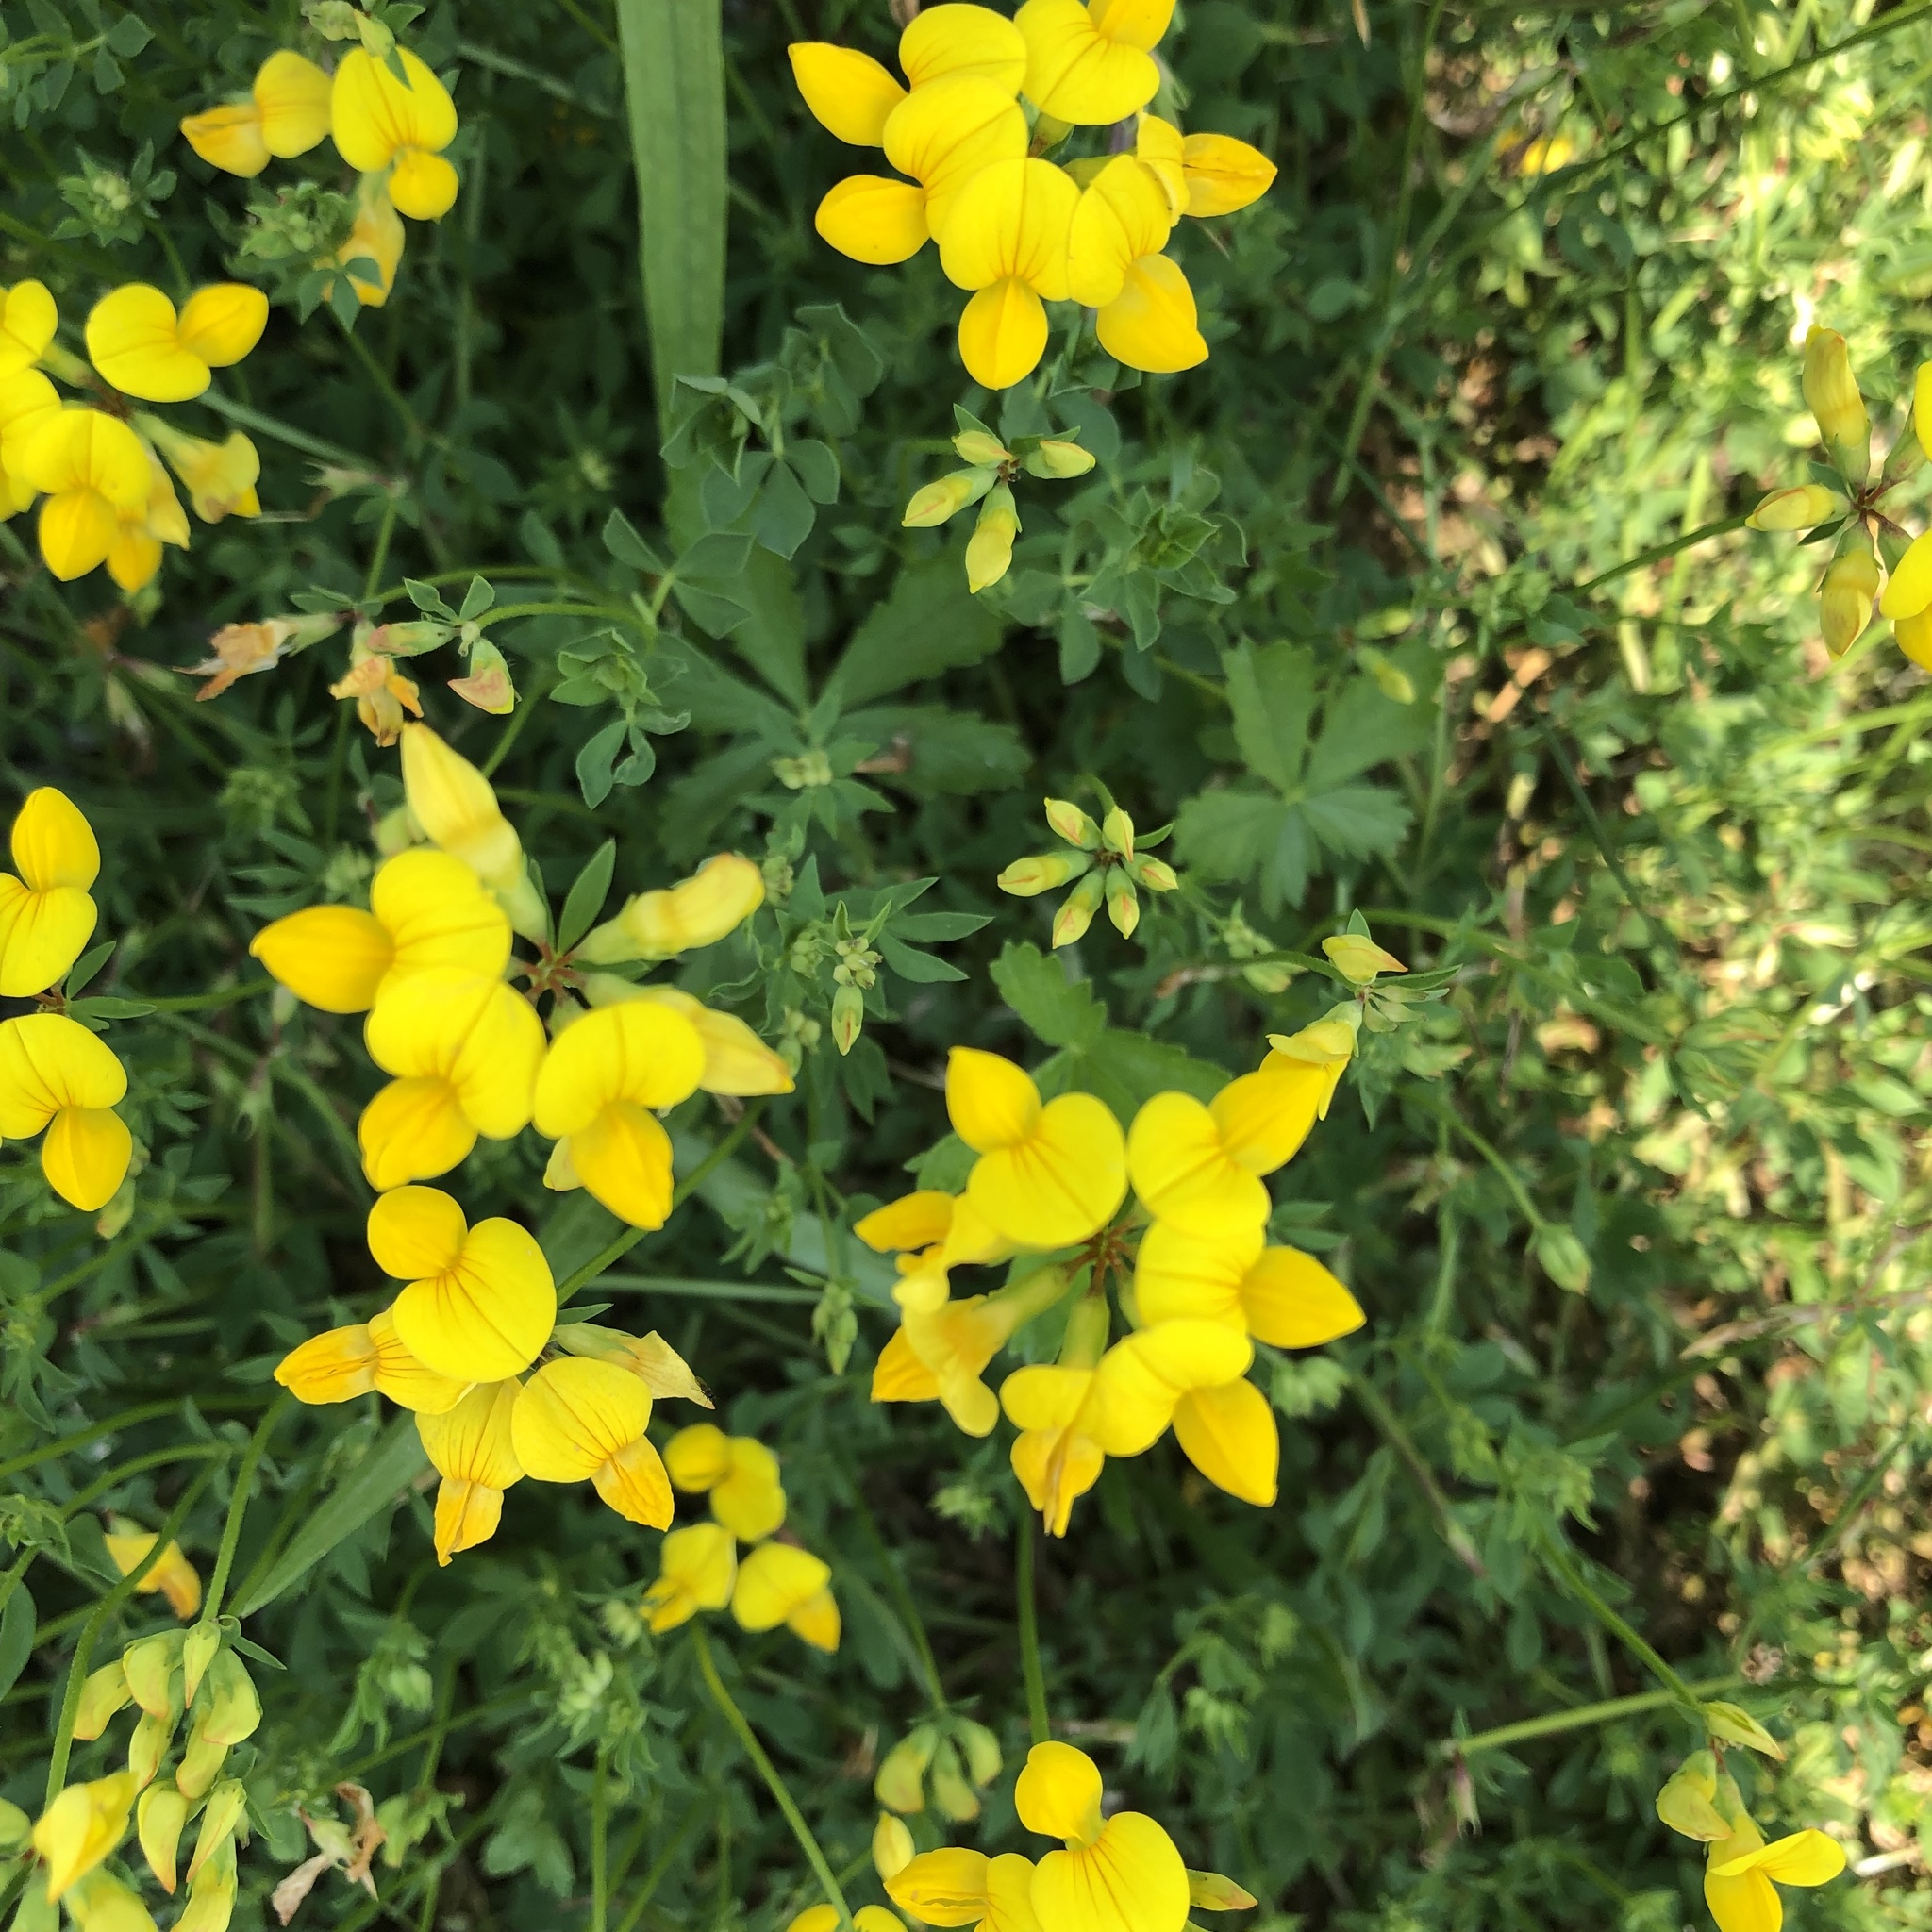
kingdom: Plantae
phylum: Tracheophyta
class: Magnoliopsida
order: Fabales
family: Fabaceae
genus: Lotus
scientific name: Lotus corniculatus
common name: Common bird's-foot-trefoil
